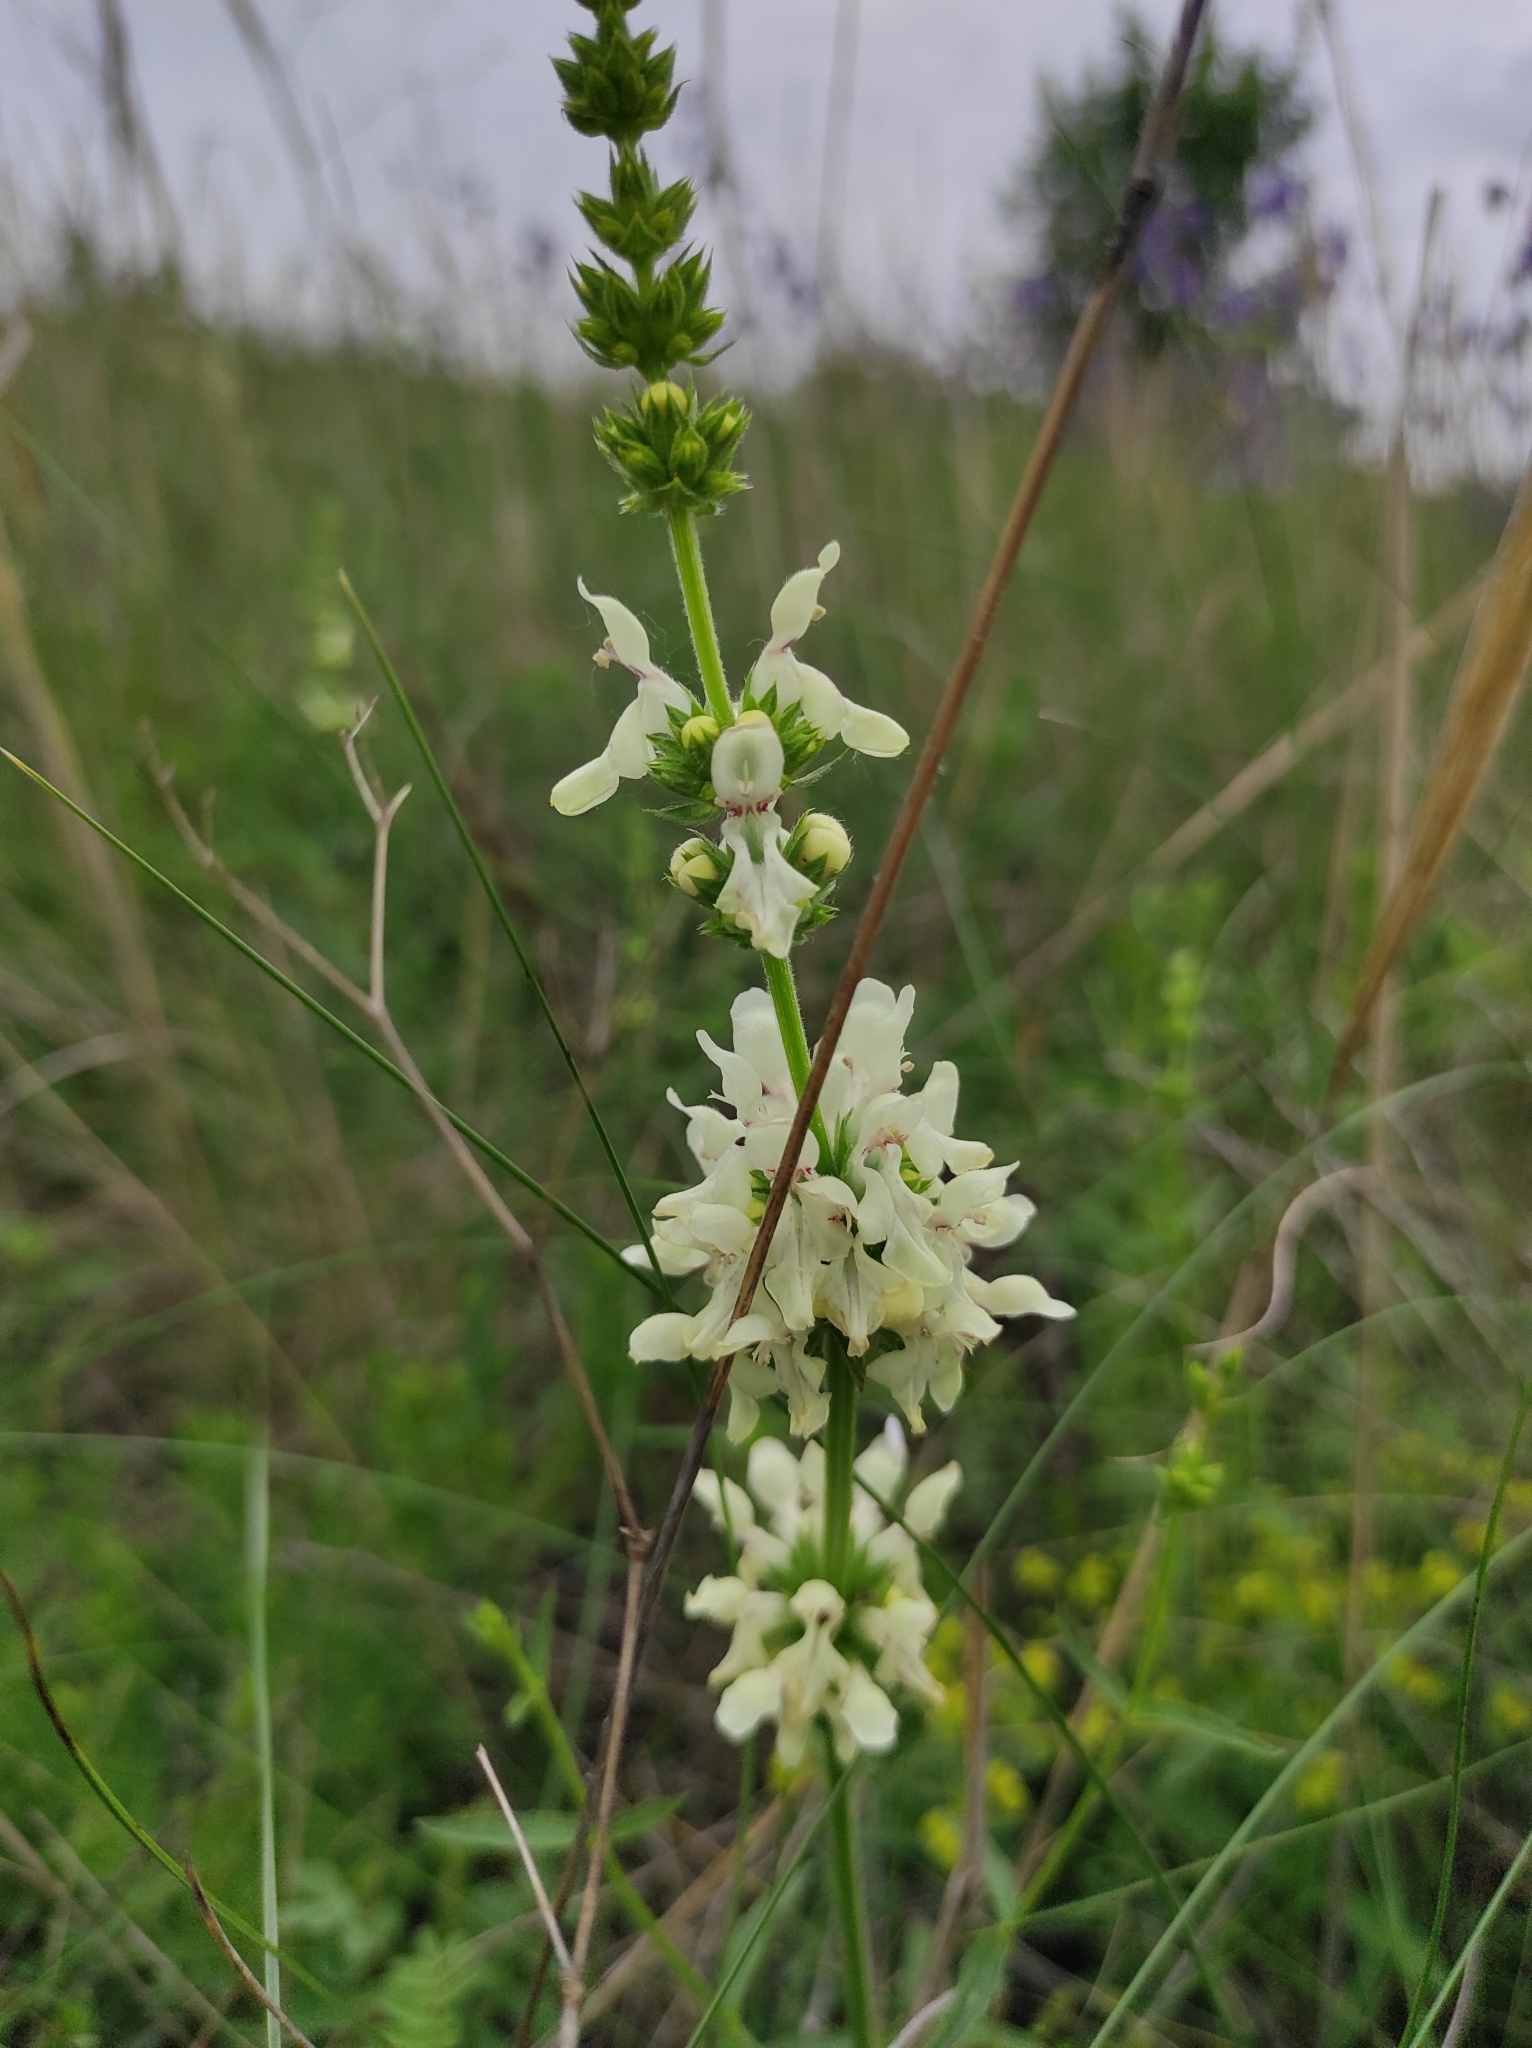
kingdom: Plantae
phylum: Tracheophyta
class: Magnoliopsida
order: Lamiales
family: Lamiaceae
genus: Stachys
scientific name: Stachys recta
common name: Perennial yellow-woundwort
